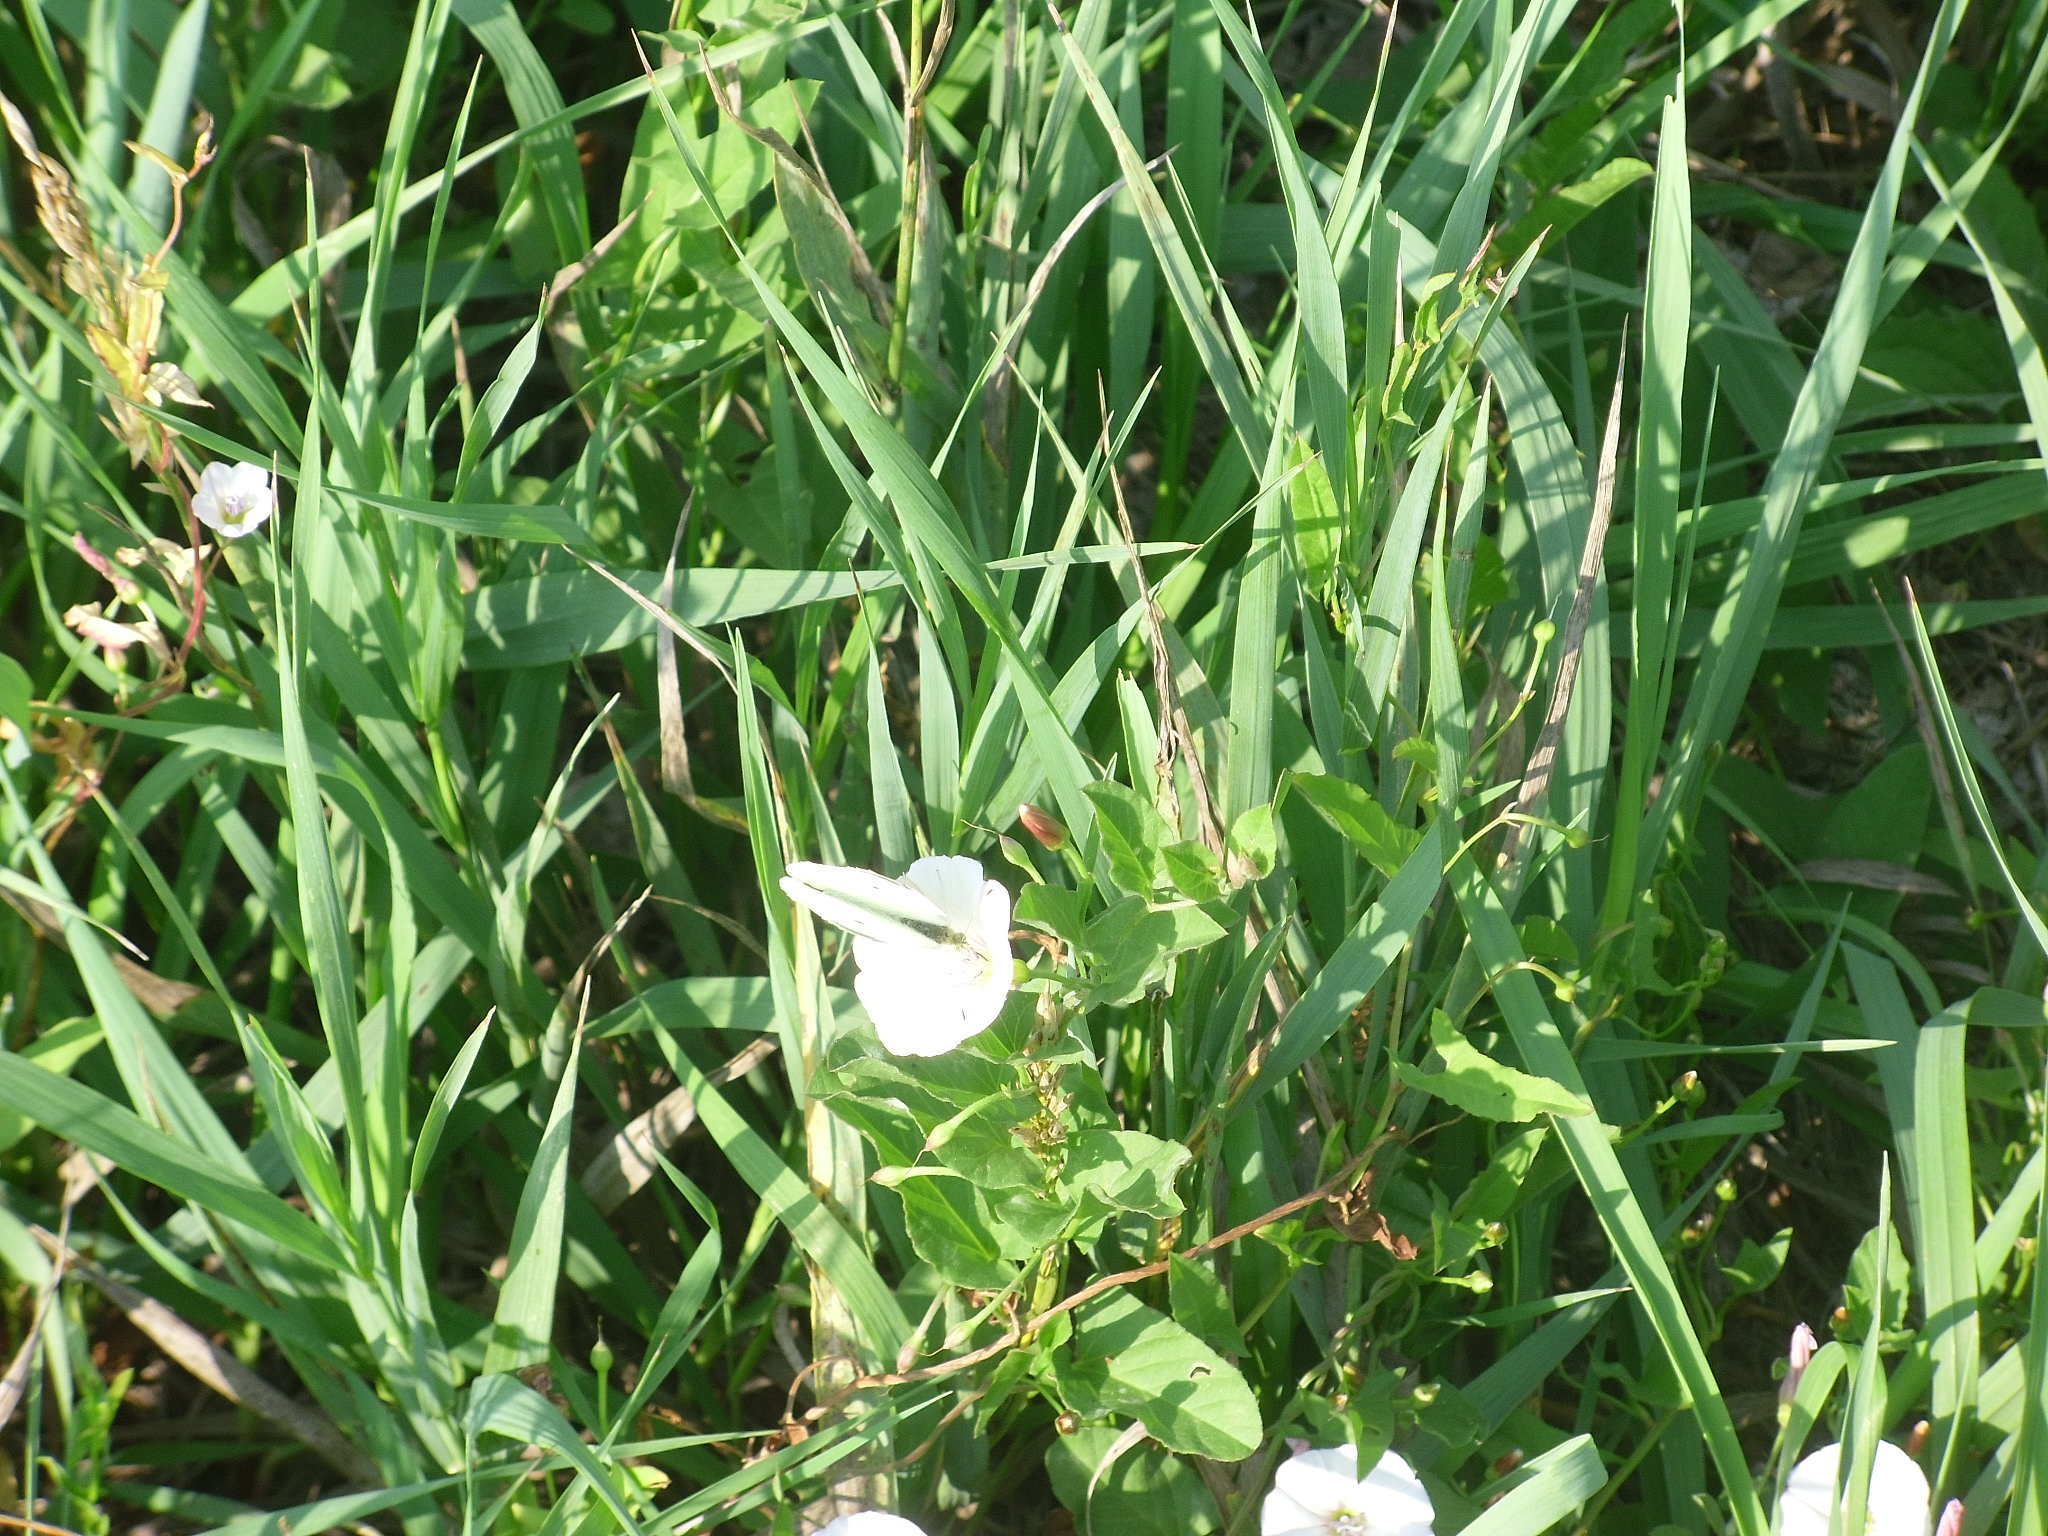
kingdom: Animalia
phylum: Arthropoda
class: Insecta
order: Lepidoptera
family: Pieridae
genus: Pieris
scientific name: Pieris rapae
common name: Small white
